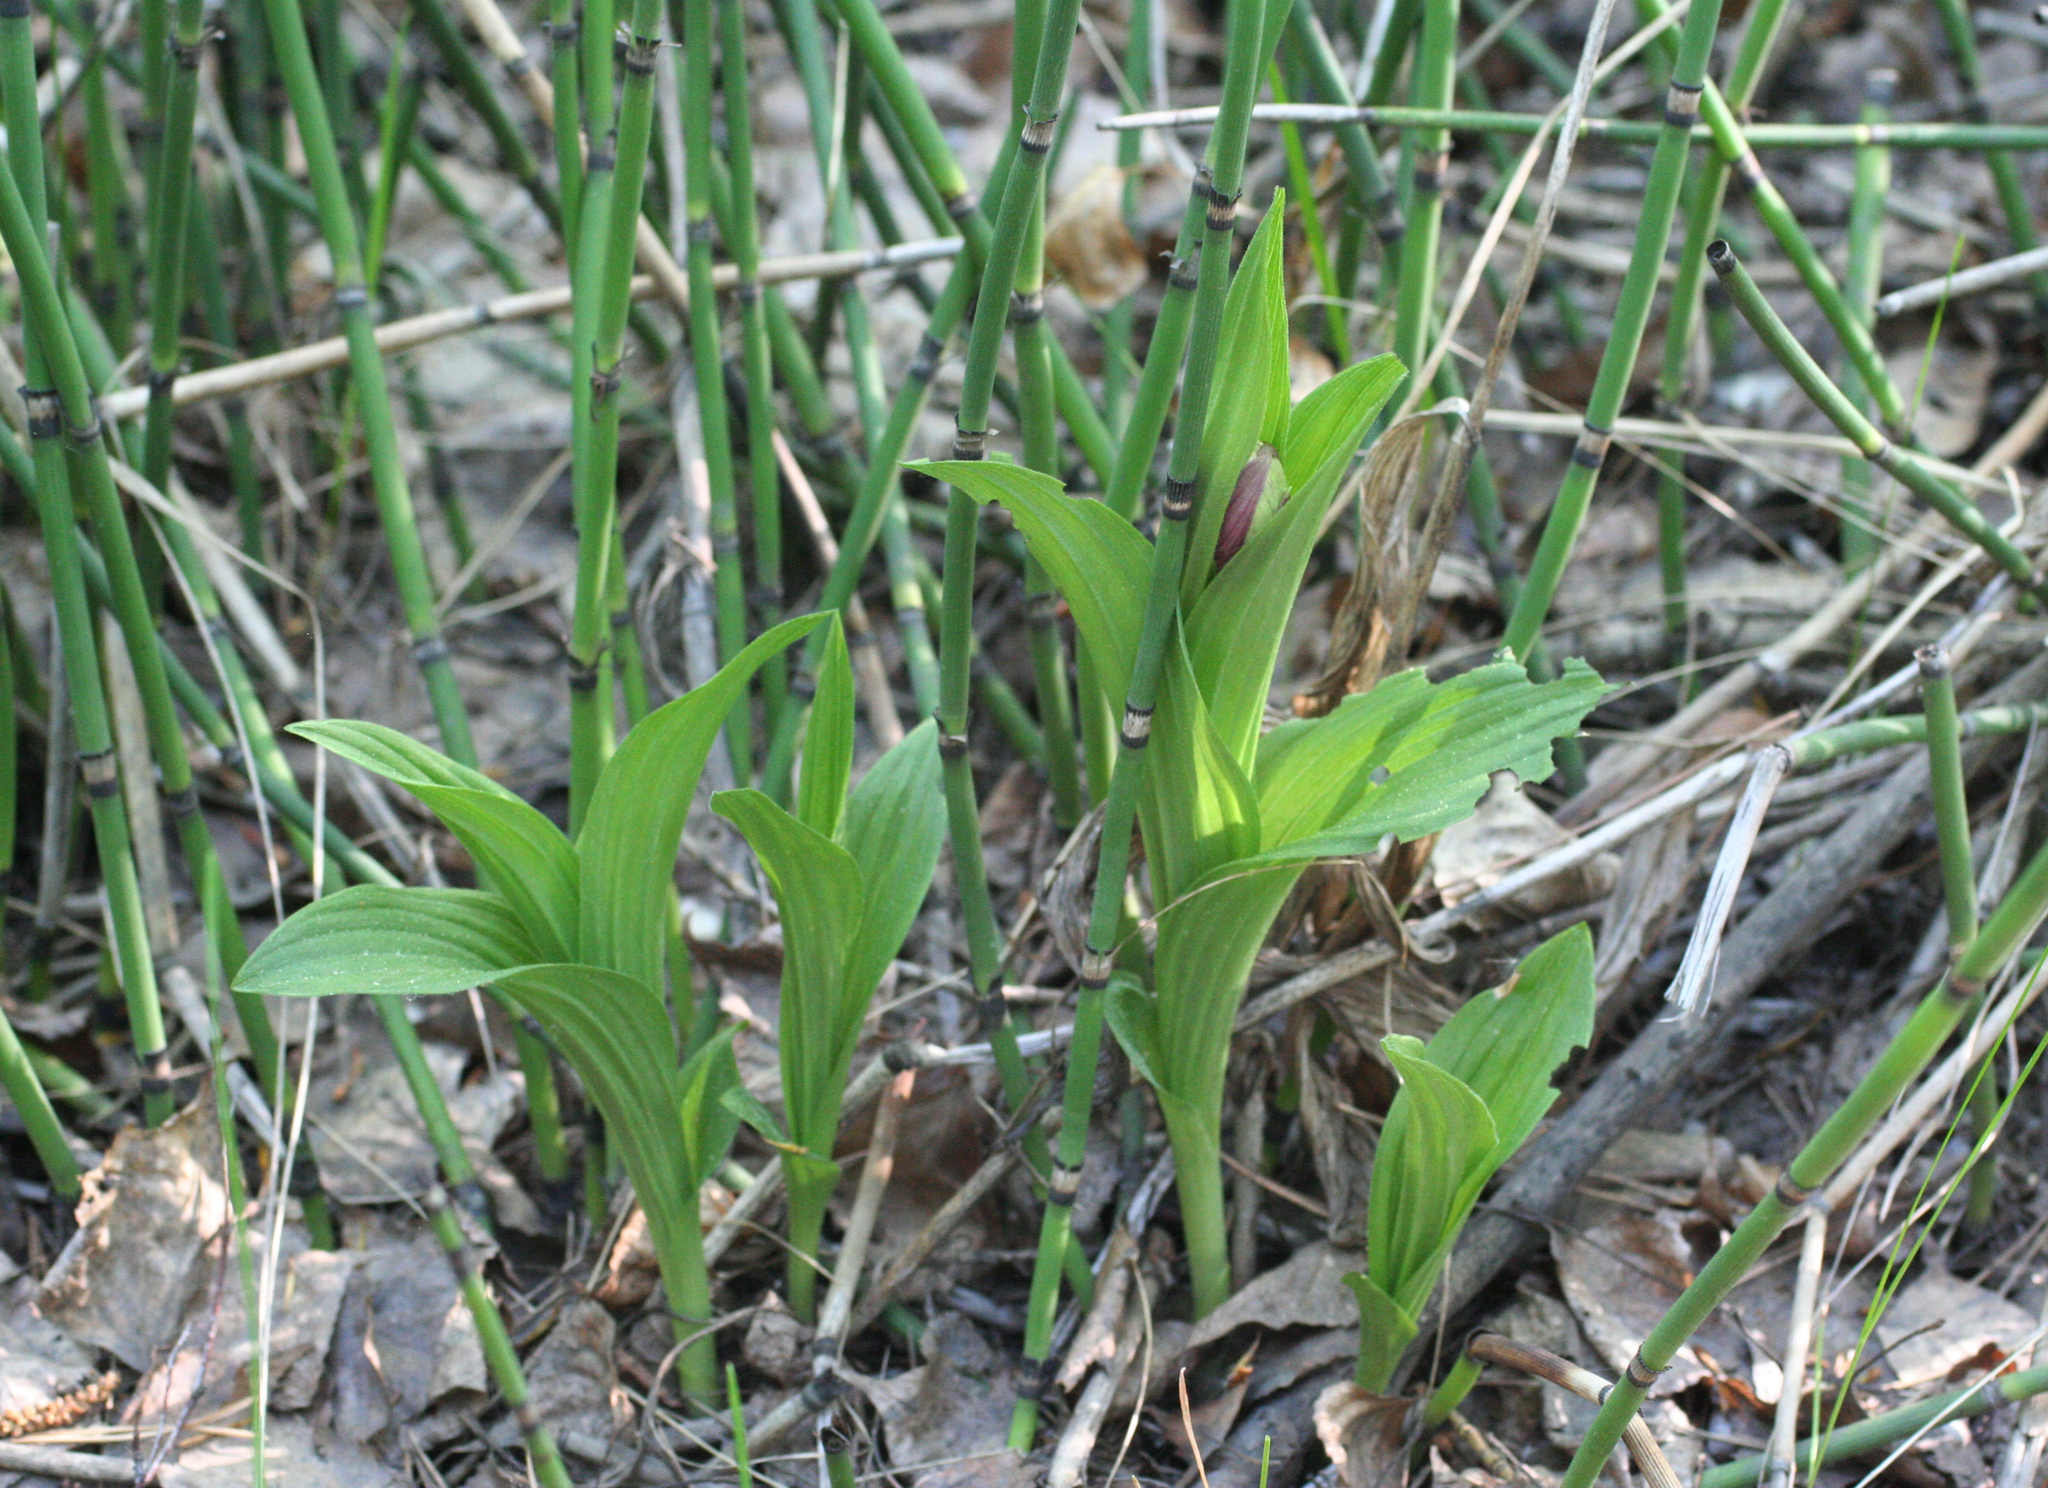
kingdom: Plantae
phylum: Tracheophyta
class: Liliopsida
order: Asparagales
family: Orchidaceae
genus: Cypripedium
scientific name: Cypripedium macranthos
